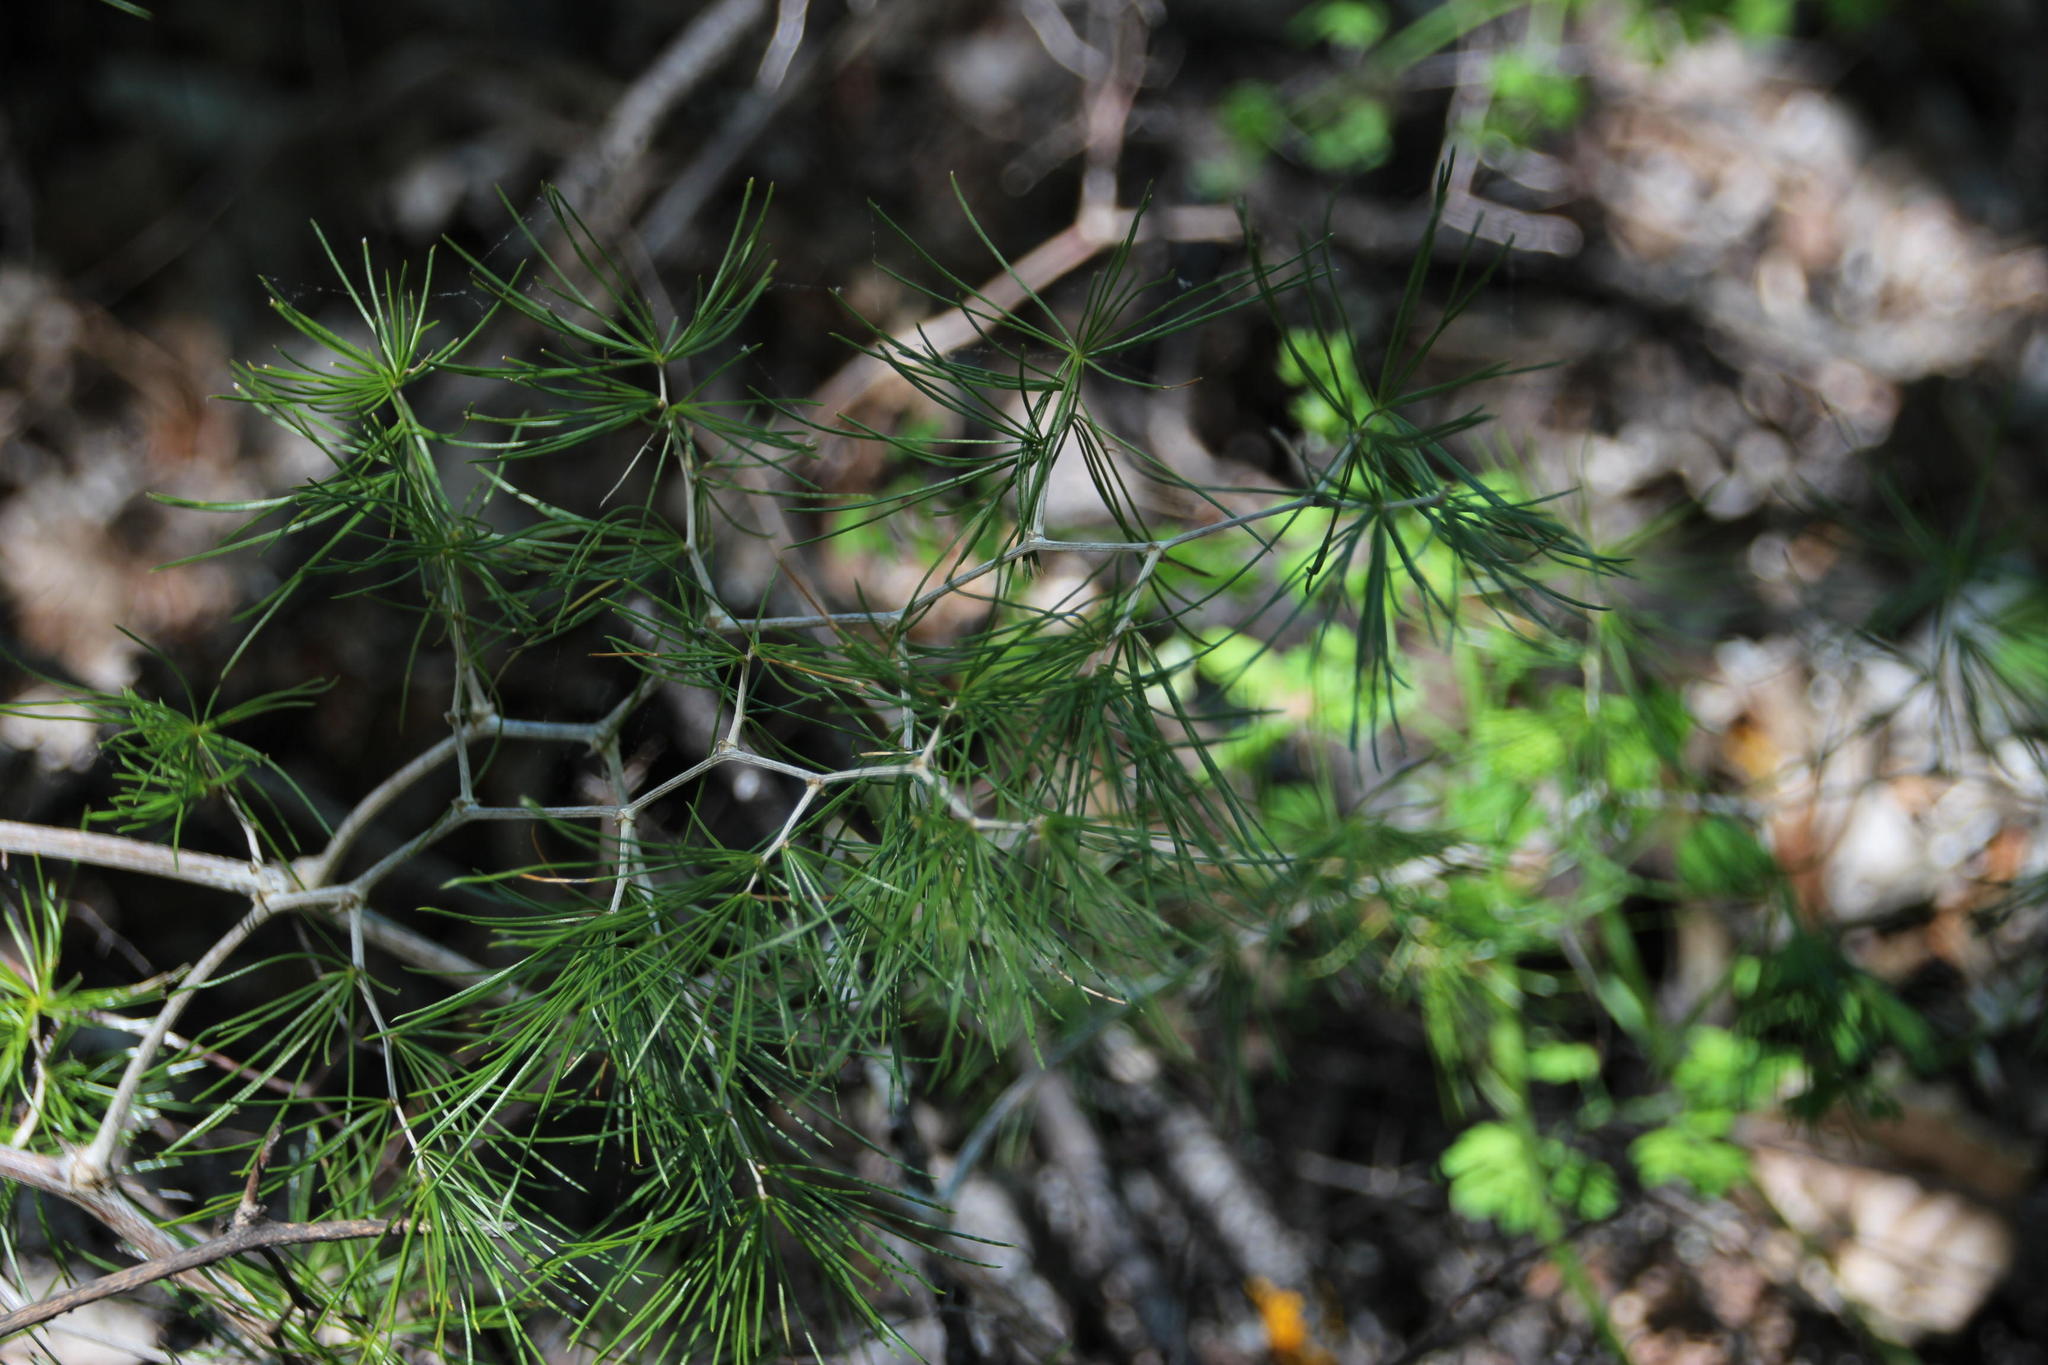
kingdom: Plantae
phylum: Tracheophyta
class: Liliopsida
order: Asparagales
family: Asparagaceae
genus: Asparagus
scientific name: Asparagus retrofractus
